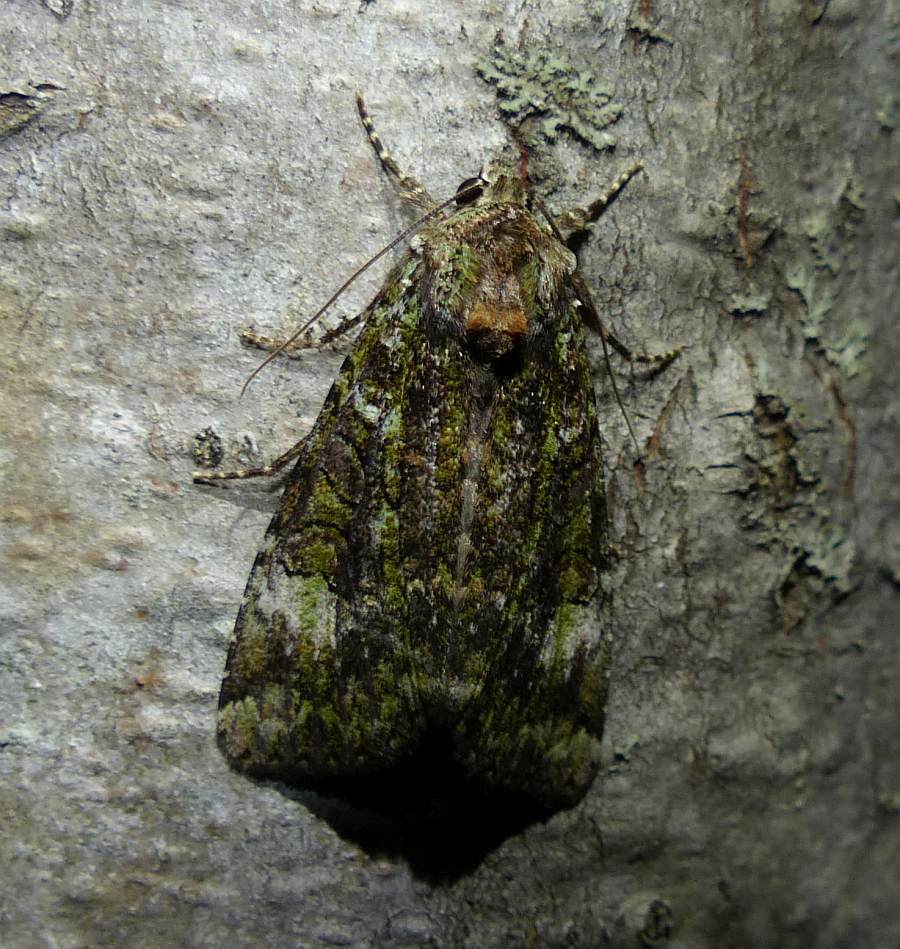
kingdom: Animalia
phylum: Arthropoda
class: Insecta
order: Lepidoptera
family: Noctuidae
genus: Anaplectoides
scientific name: Anaplectoides prasina
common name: Green arches
